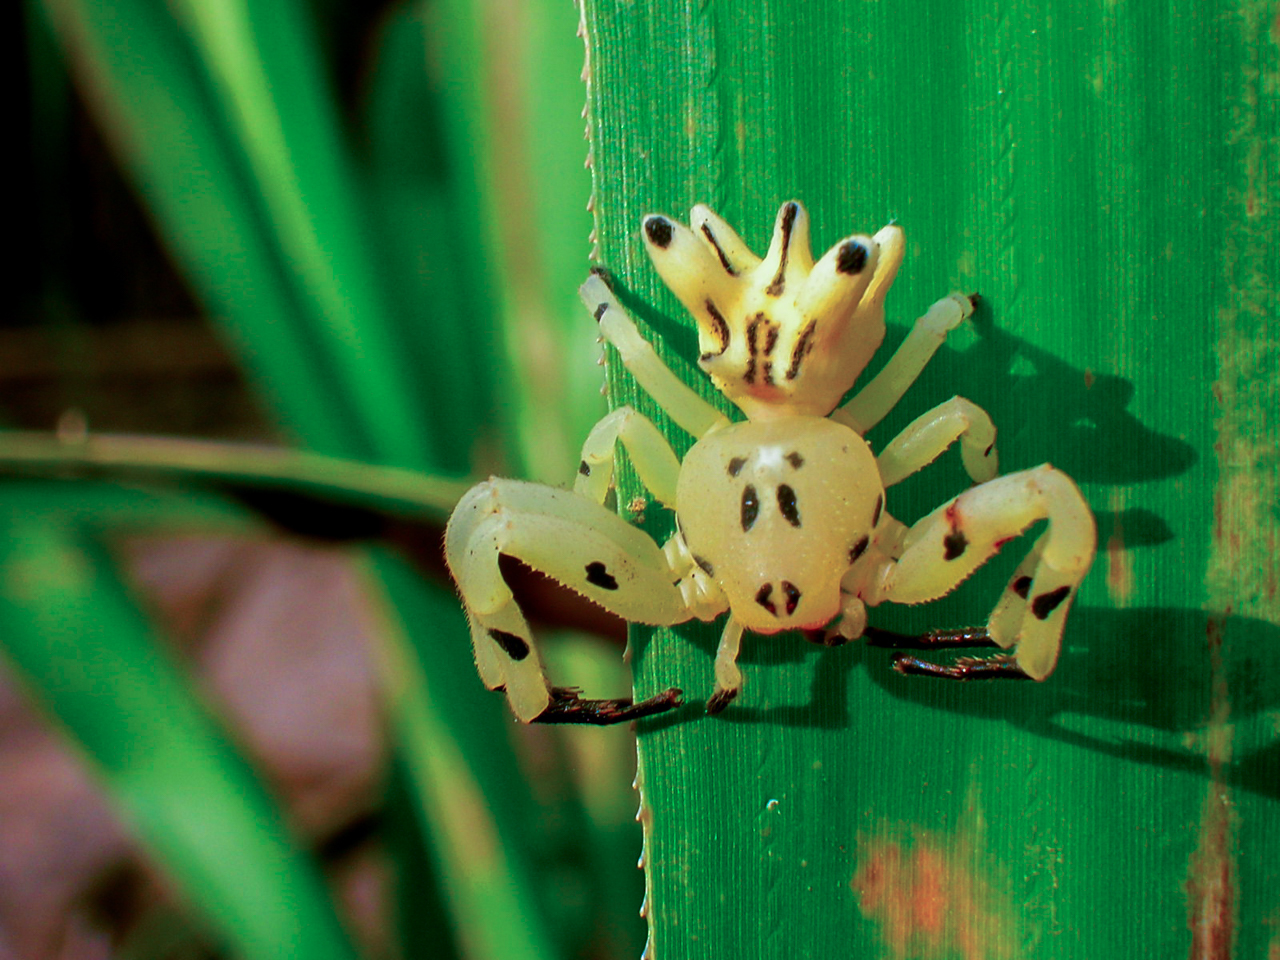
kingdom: Animalia
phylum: Arthropoda
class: Arachnida
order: Araneae
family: Thomisidae
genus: Epicadus
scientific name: Epicadus heterogaster
